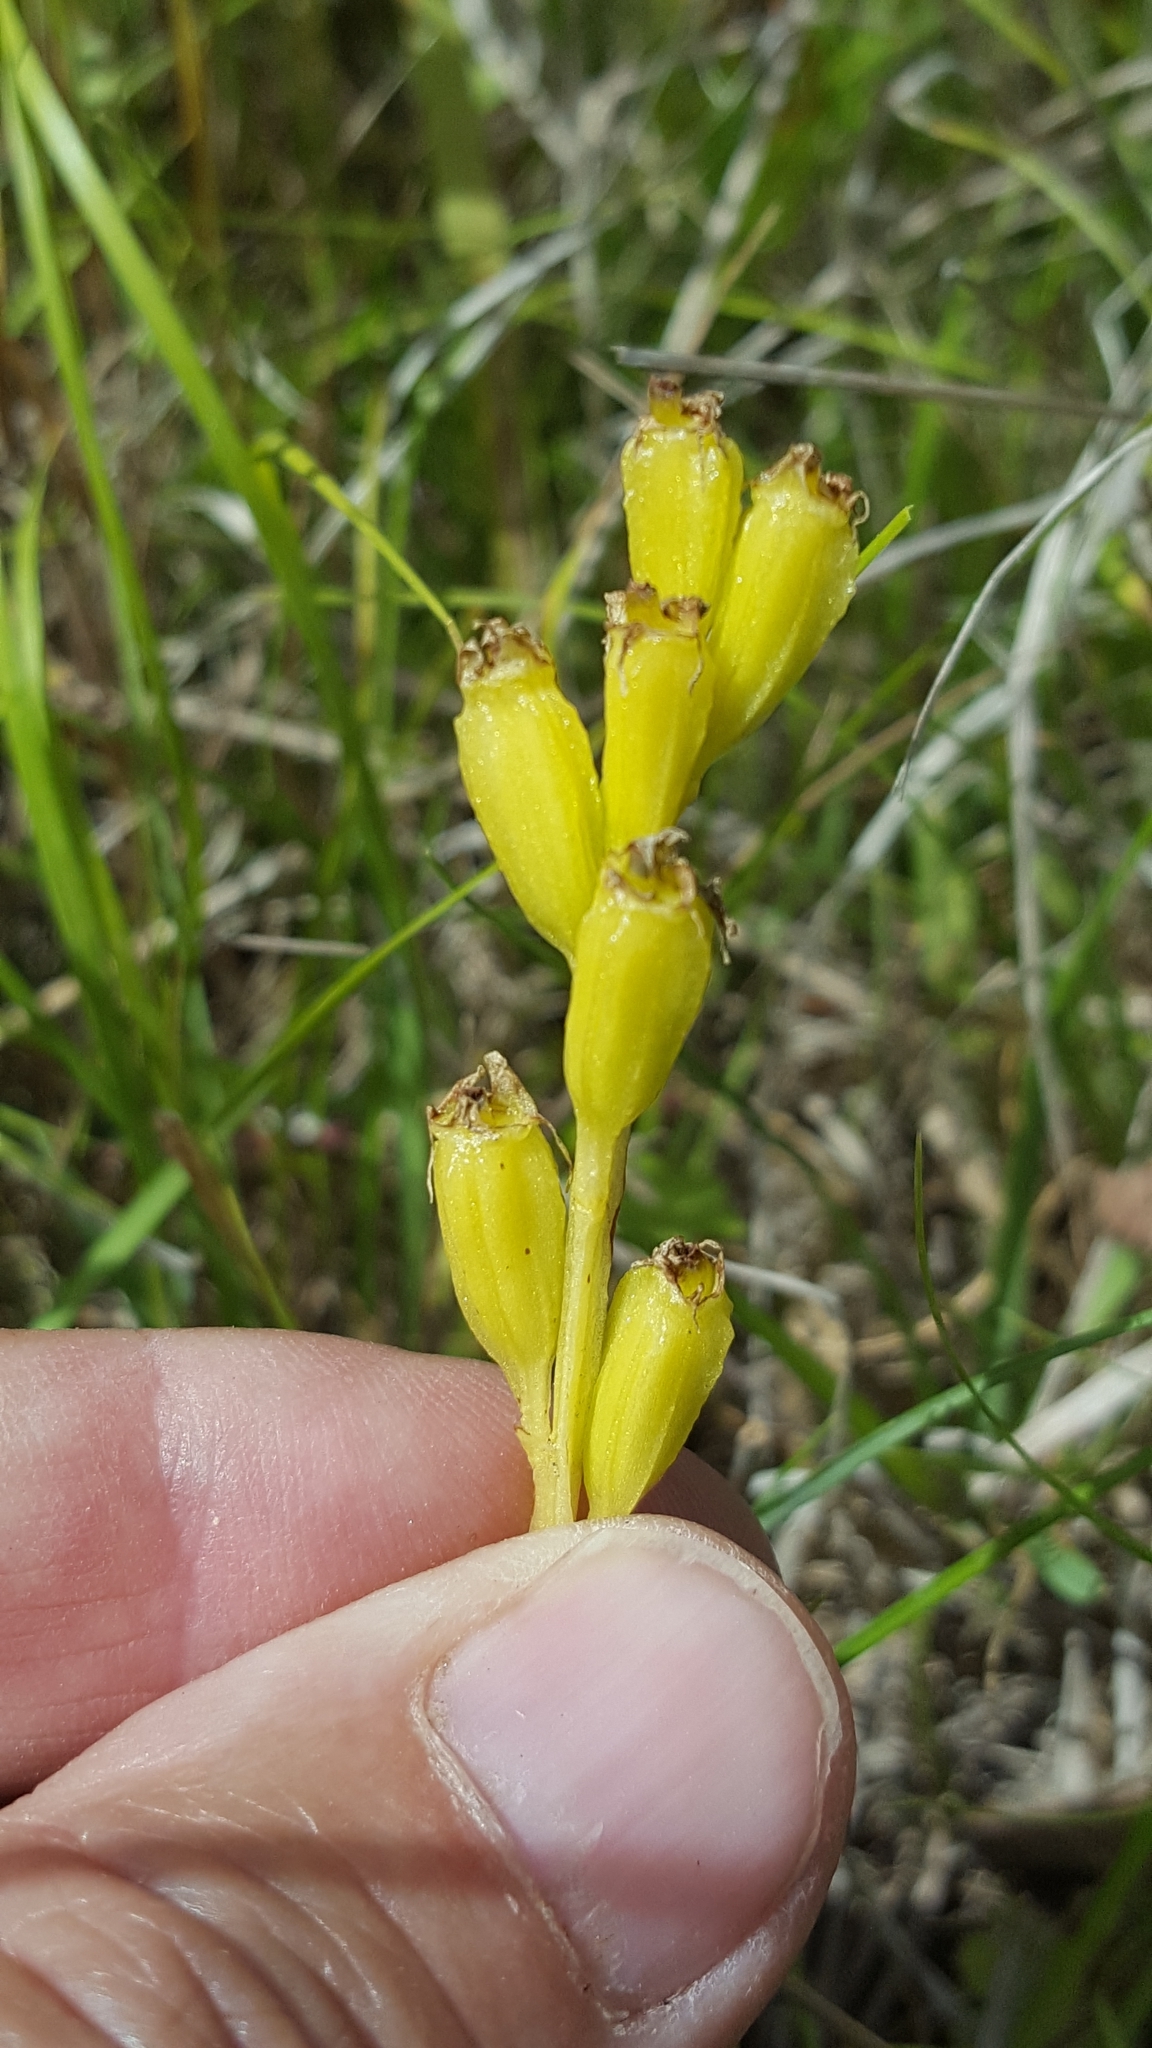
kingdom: Animalia
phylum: Arthropoda
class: Insecta
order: Coleoptera
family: Curculionidae
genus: Liparis
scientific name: Liparis loeselii
